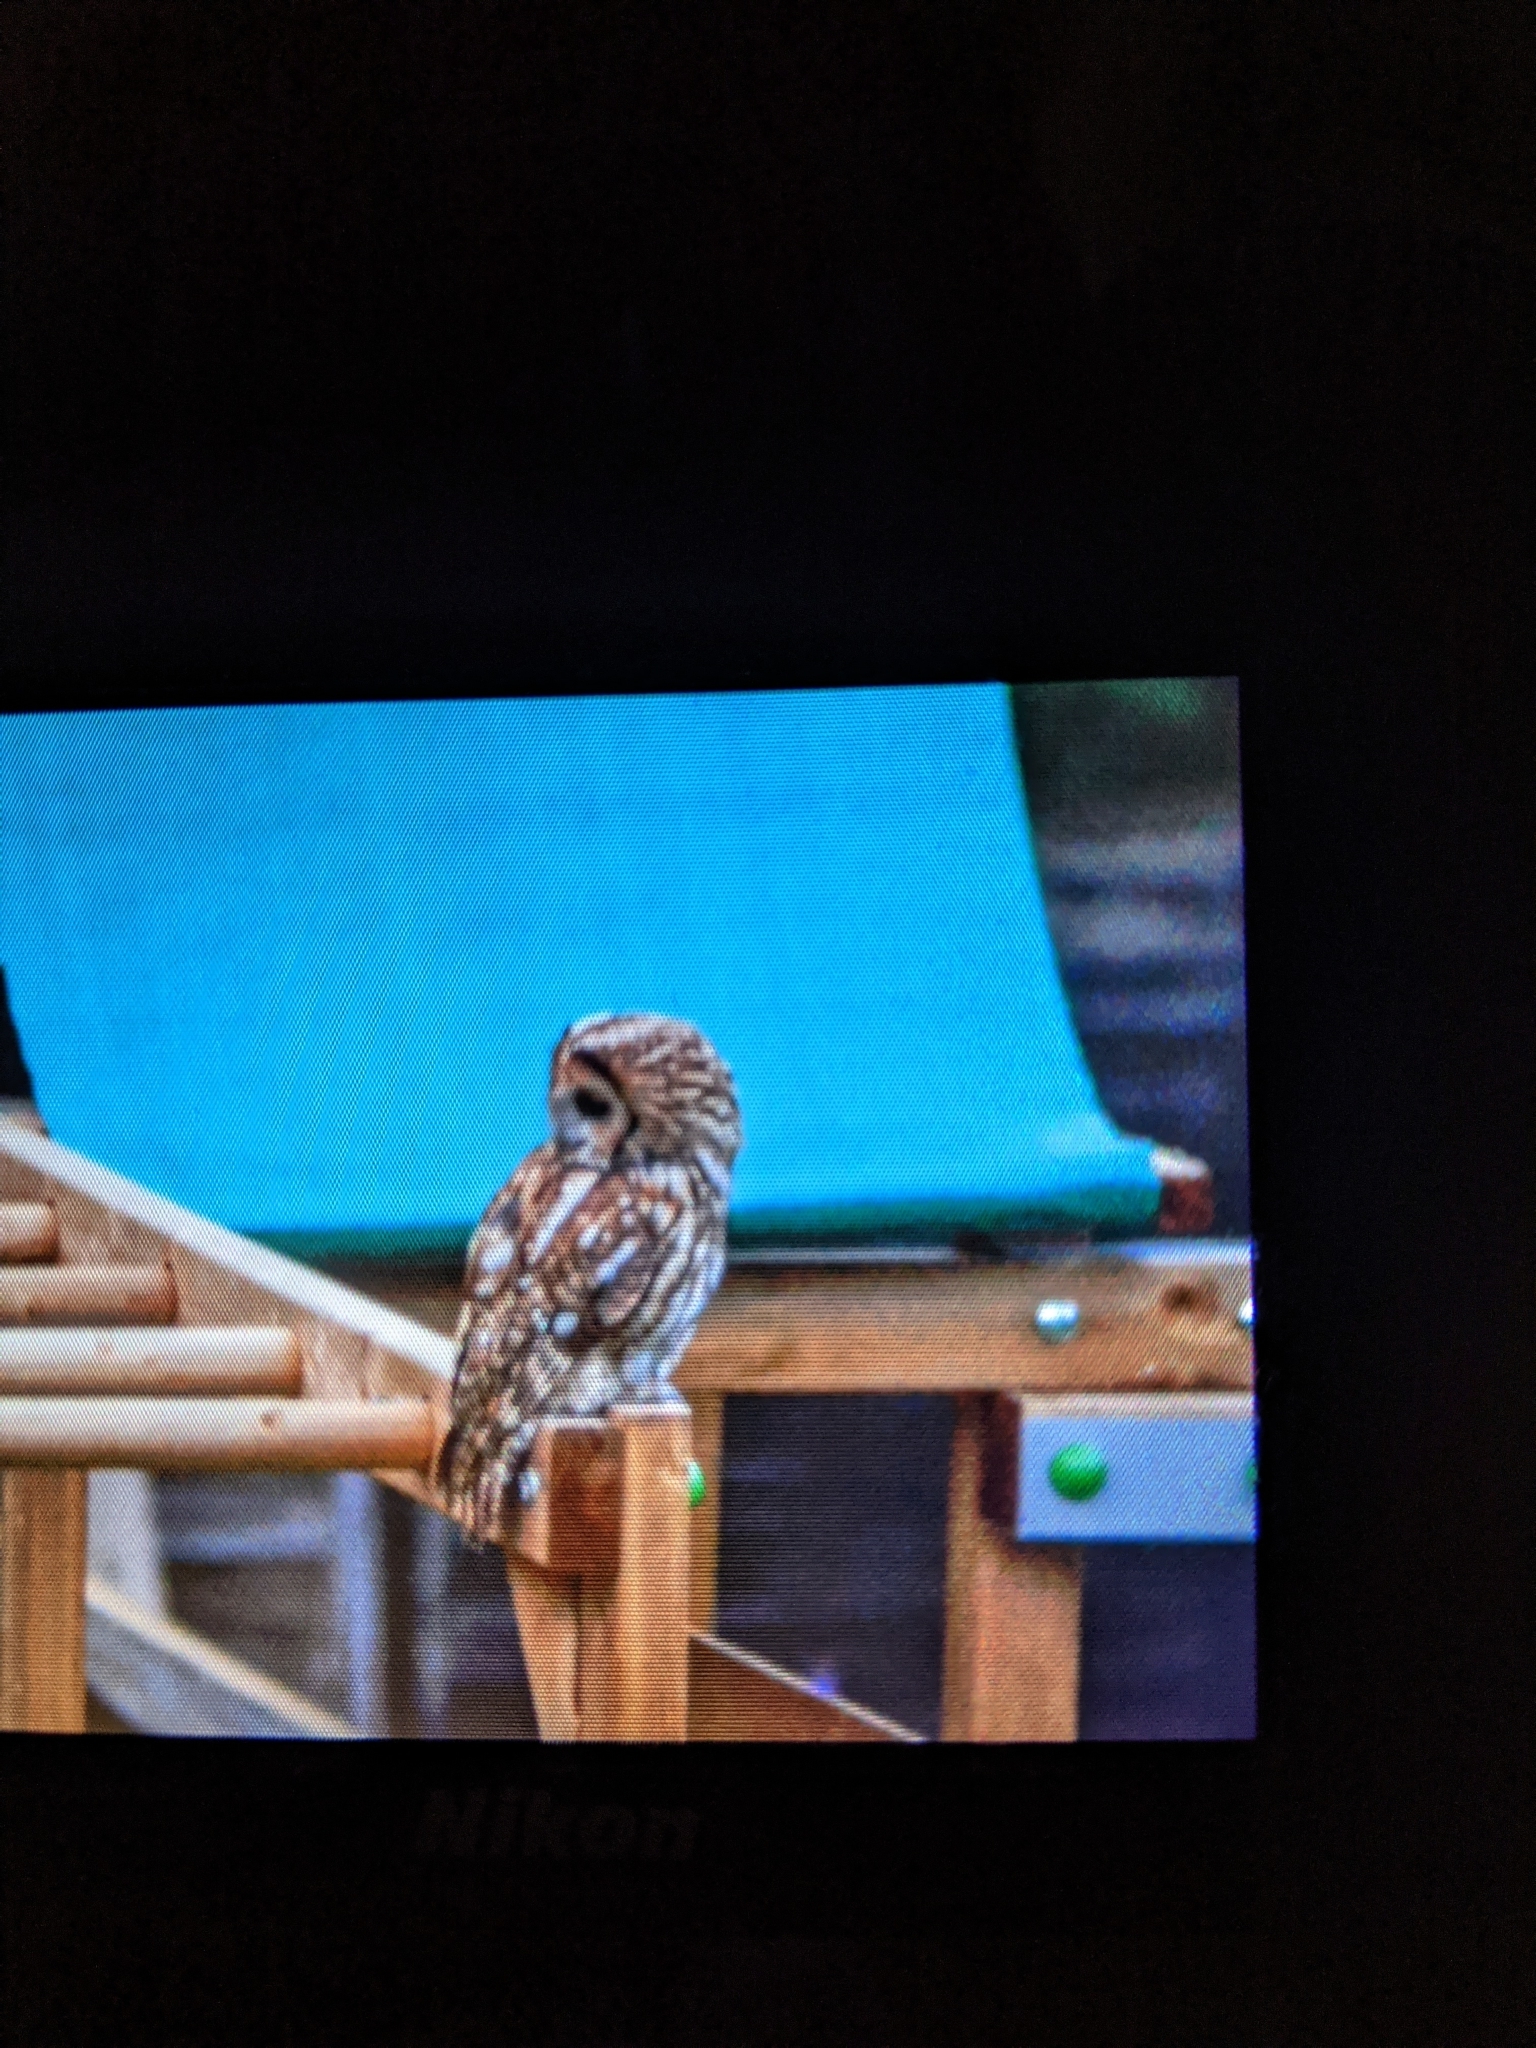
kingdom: Animalia
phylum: Chordata
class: Aves
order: Strigiformes
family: Strigidae
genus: Strix
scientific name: Strix aluco
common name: Tawny owl
